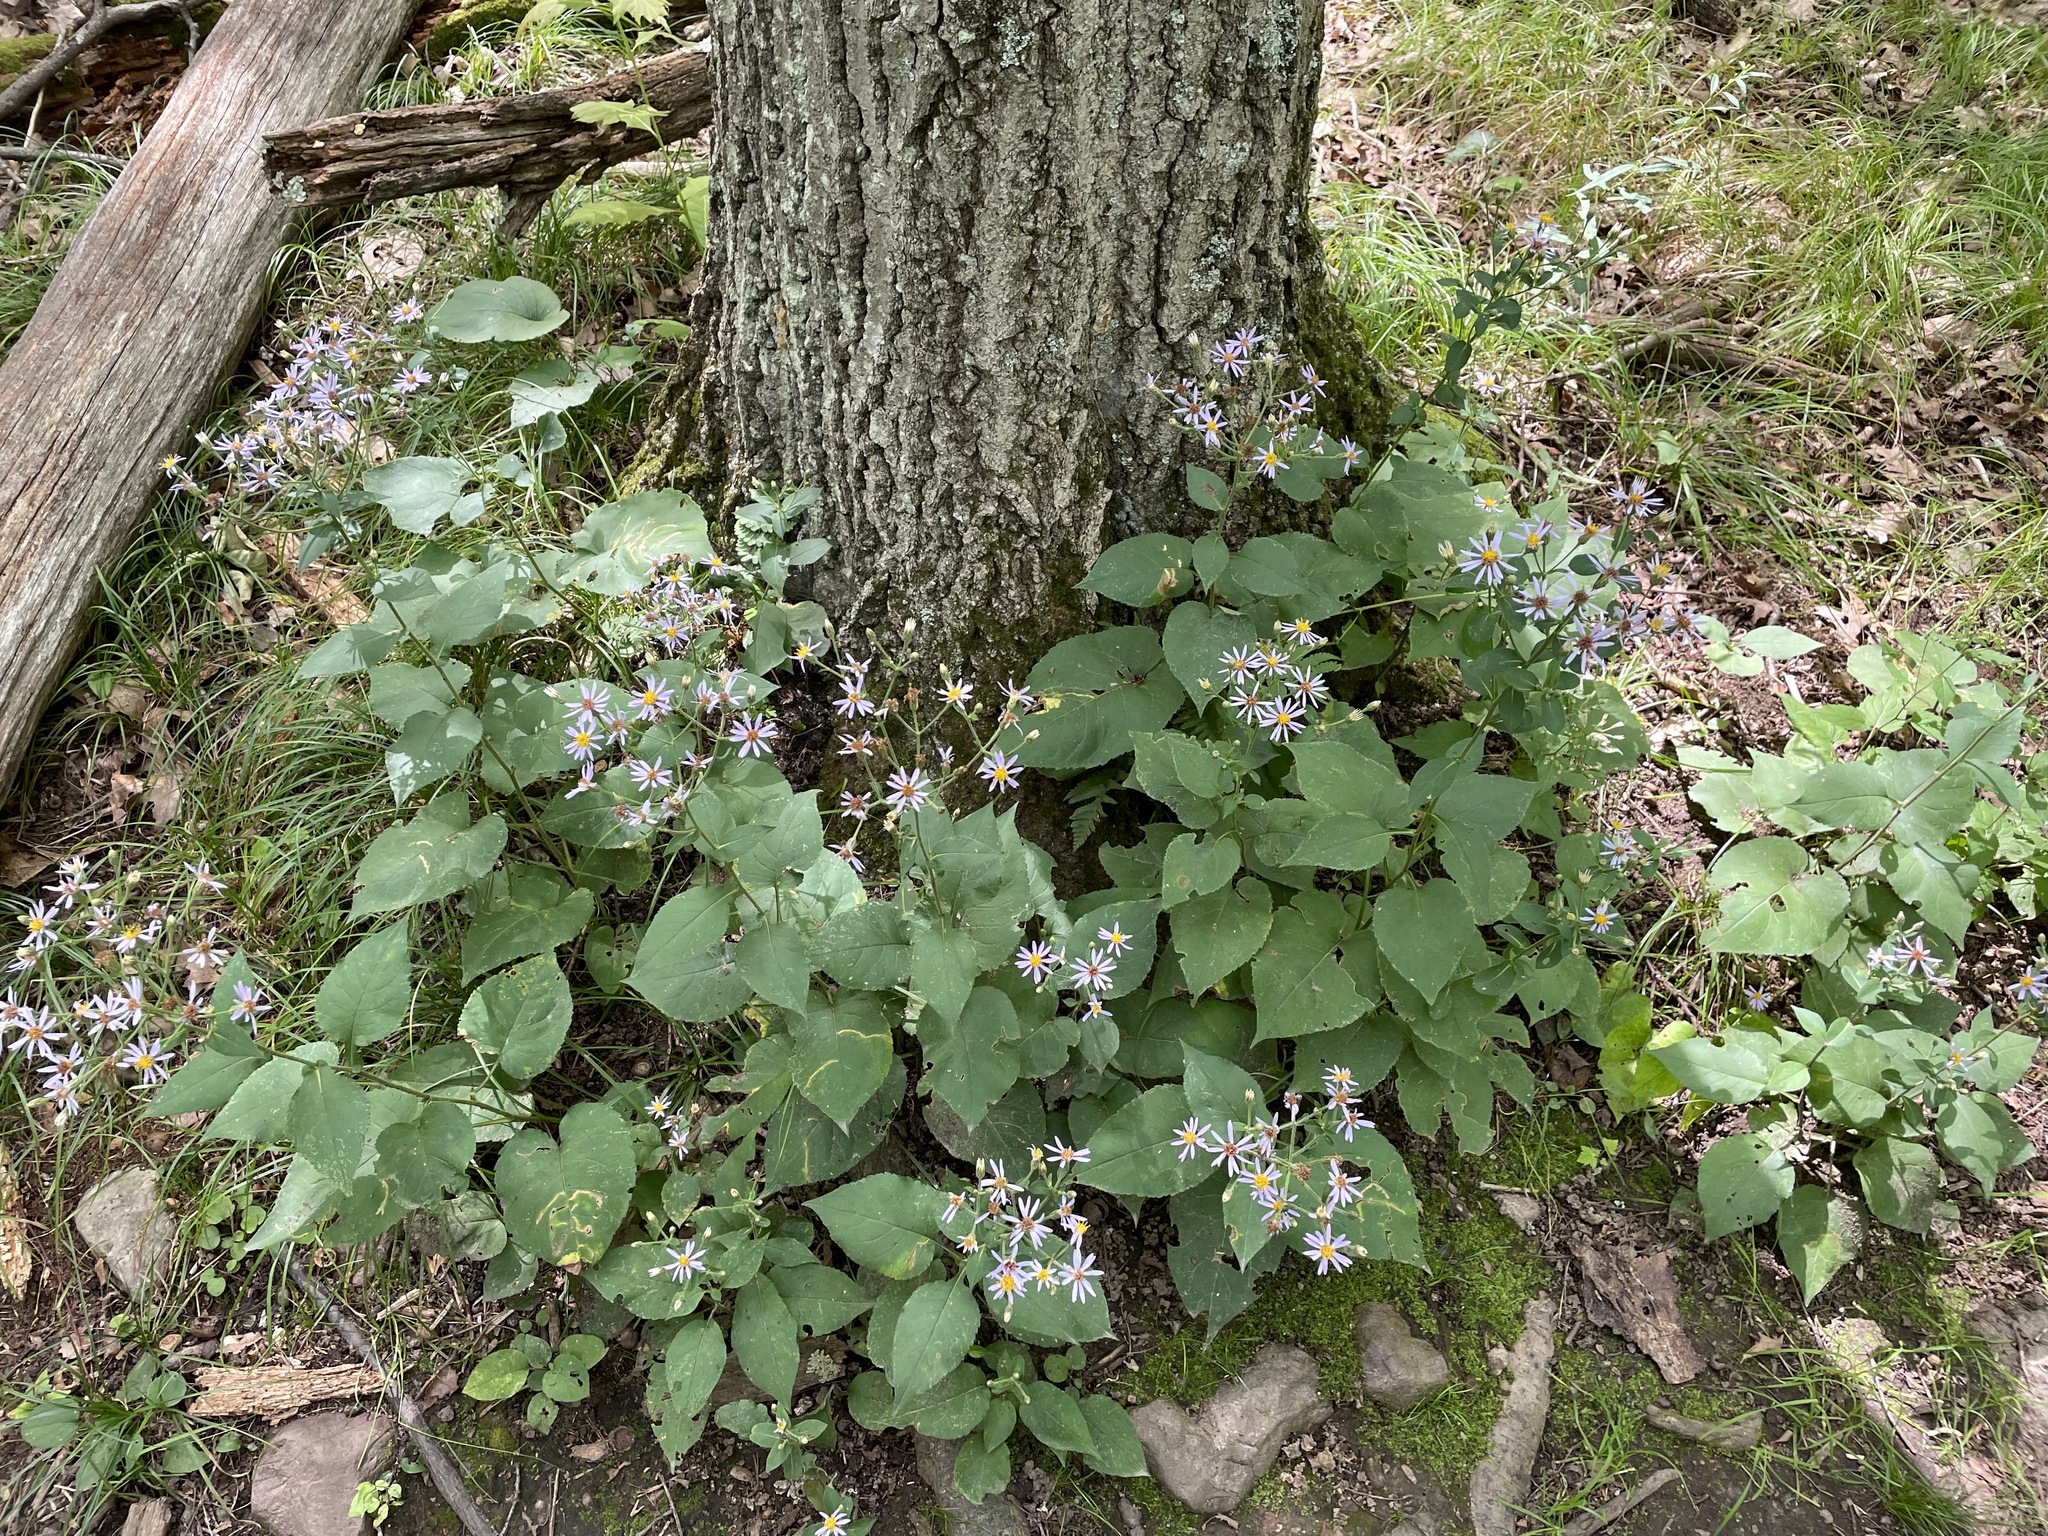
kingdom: Plantae
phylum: Tracheophyta
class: Magnoliopsida
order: Asterales
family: Asteraceae
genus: Eurybia
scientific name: Eurybia macrophylla
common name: Big-leaved aster
